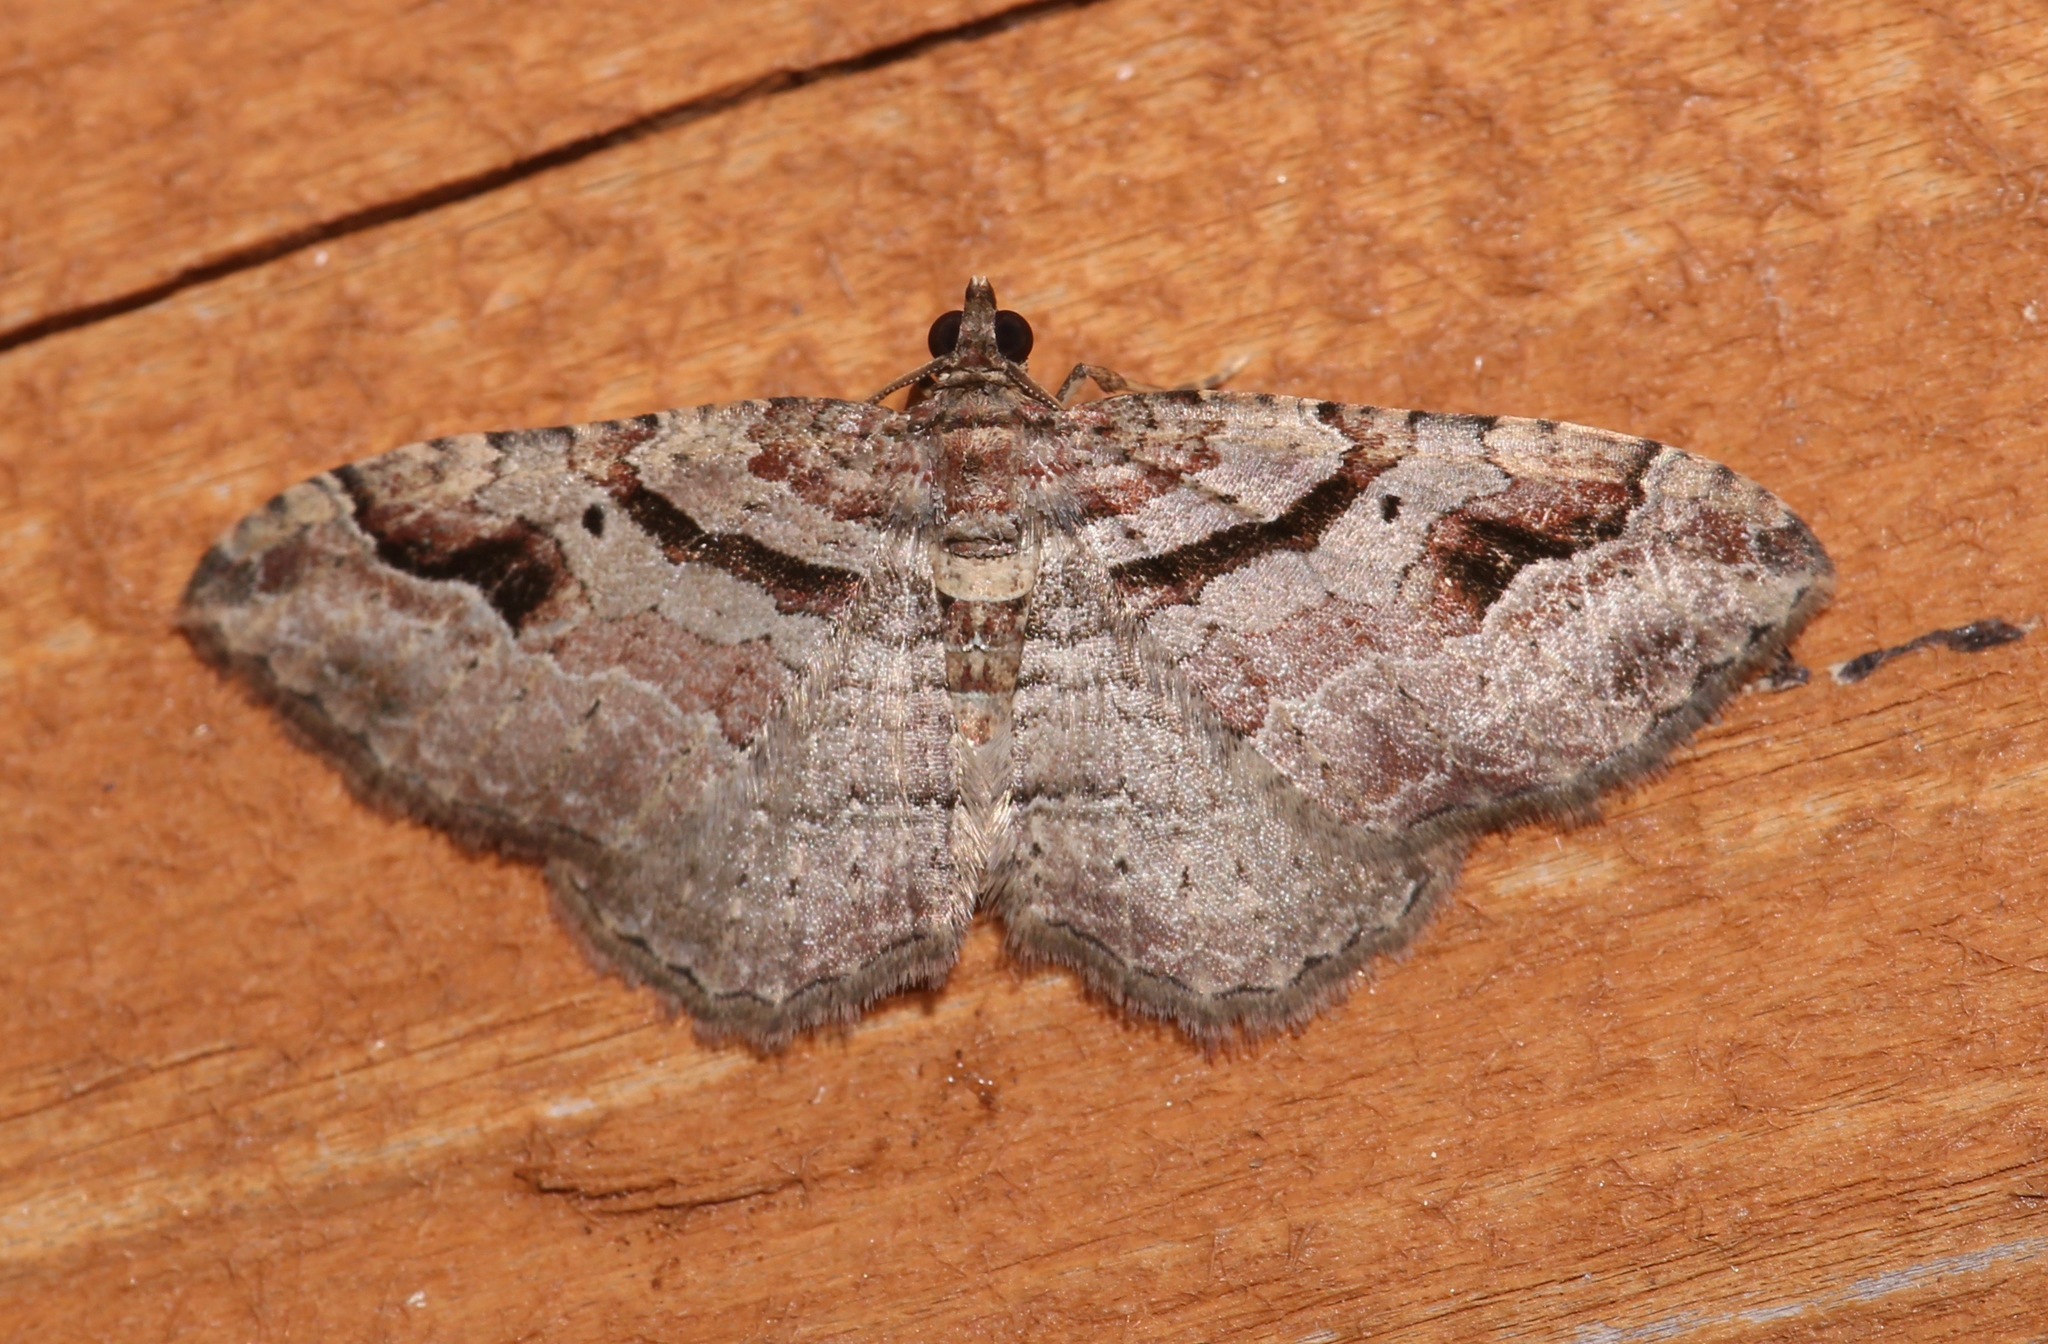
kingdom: Animalia
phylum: Arthropoda
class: Insecta
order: Lepidoptera
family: Geometridae
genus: Costaconvexa
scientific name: Costaconvexa centrostrigaria
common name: Bent-line carpet
